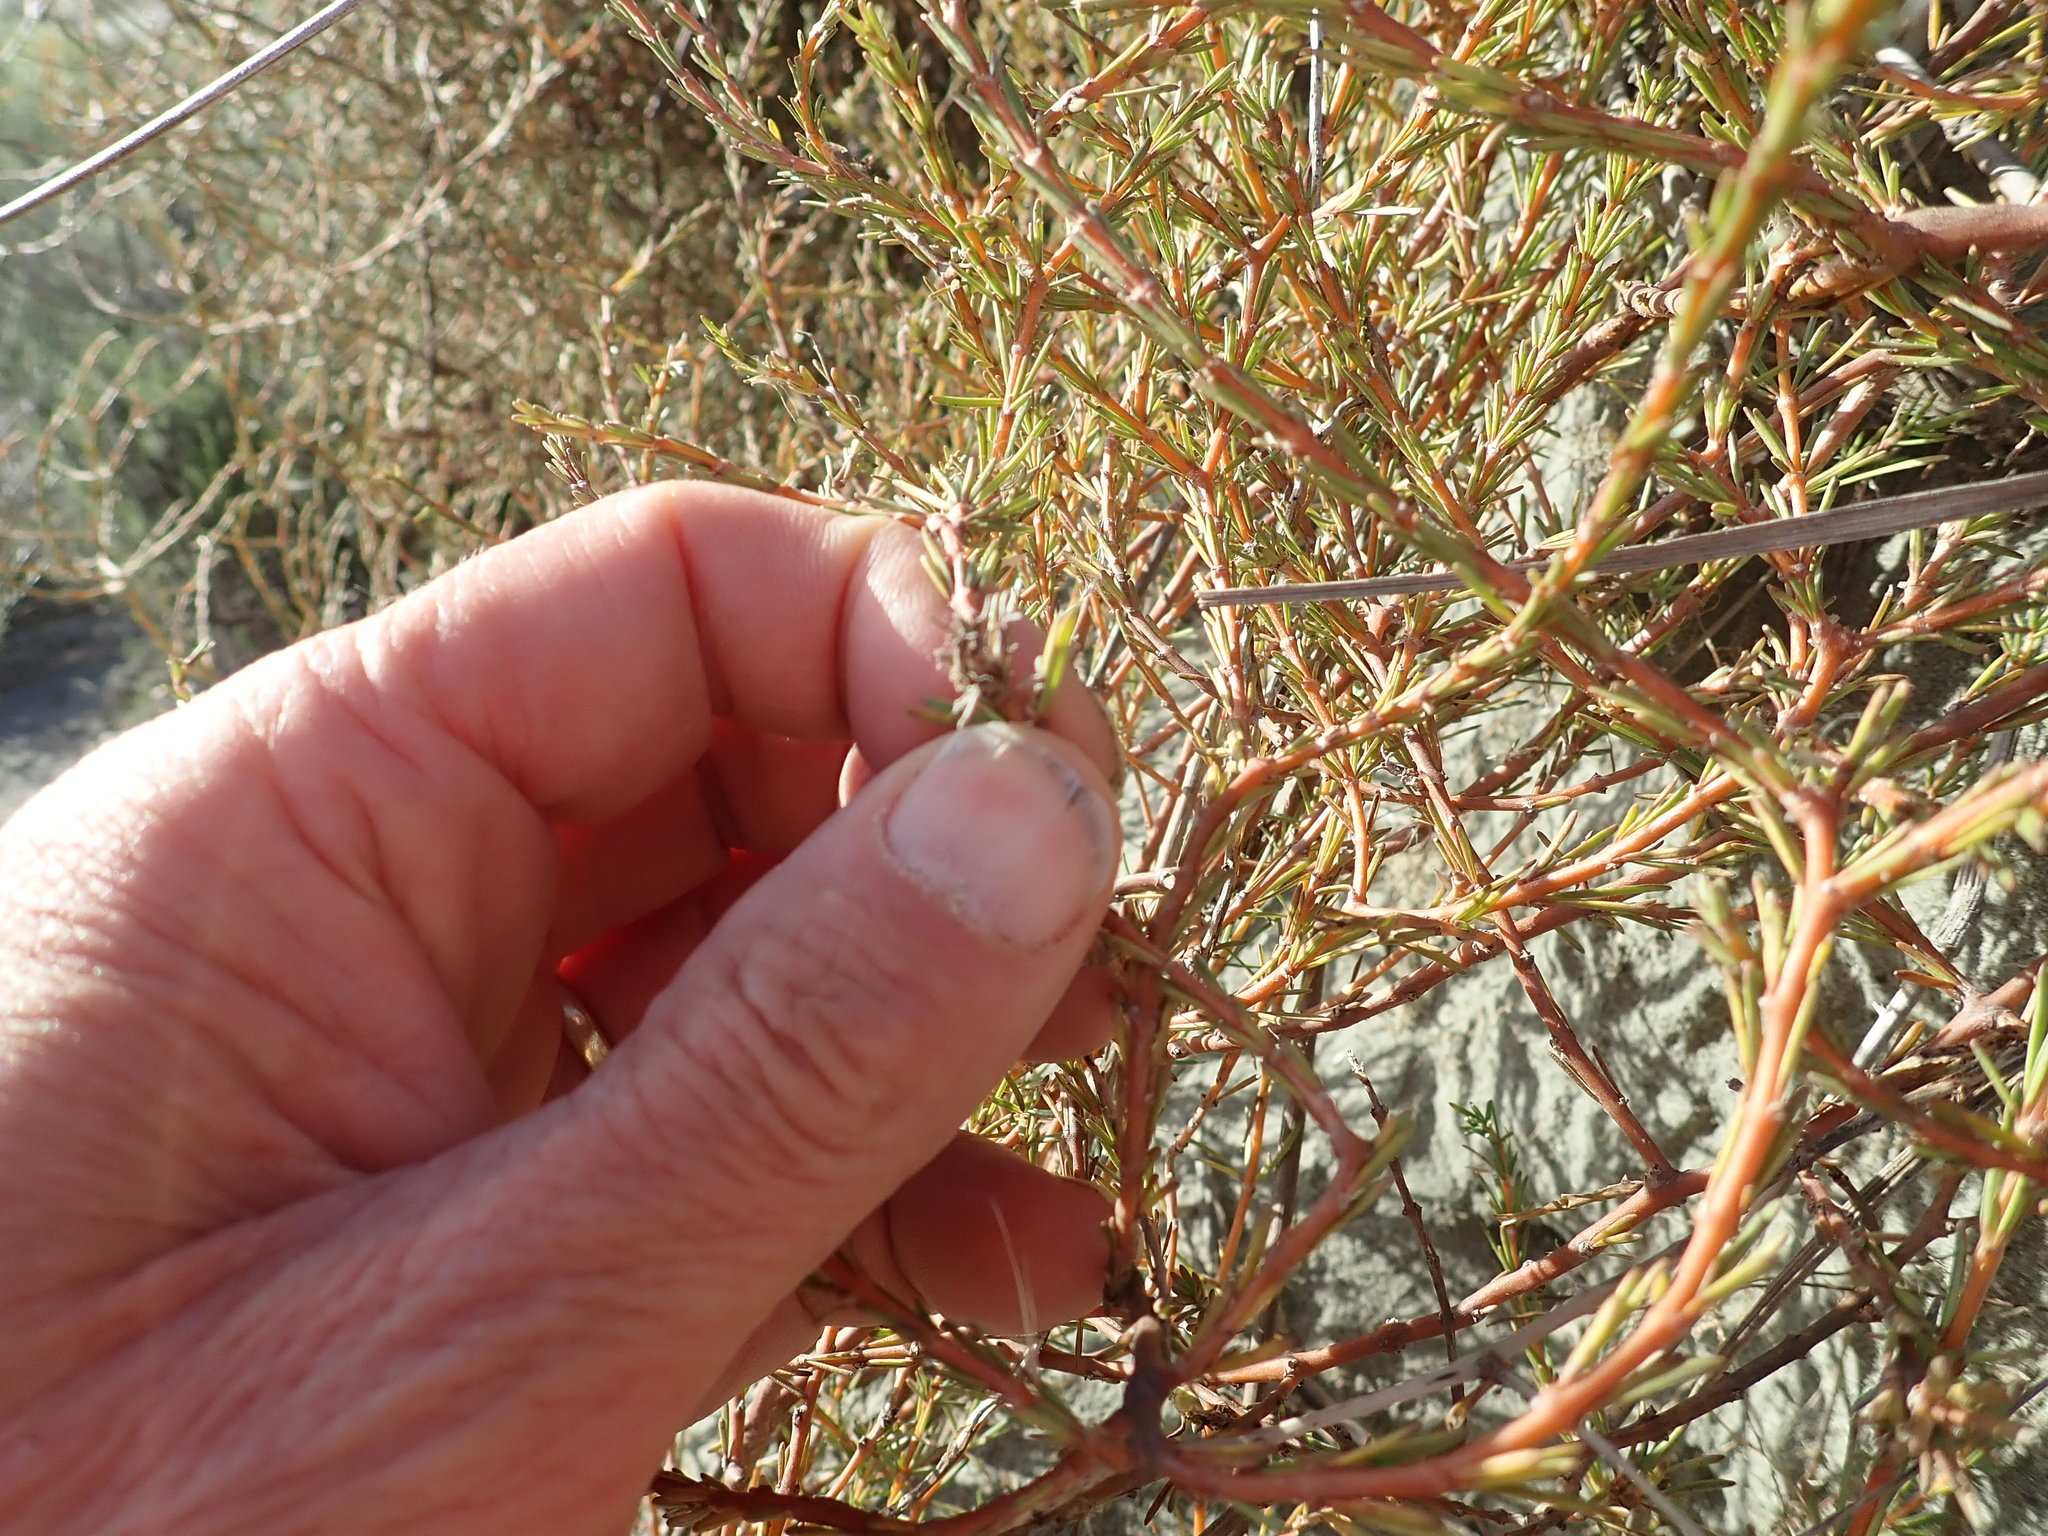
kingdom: Plantae
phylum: Tracheophyta
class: Magnoliopsida
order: Gentianales
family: Rubiaceae
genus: Coprosma
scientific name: Coprosma acerosa
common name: Sand coprosma
